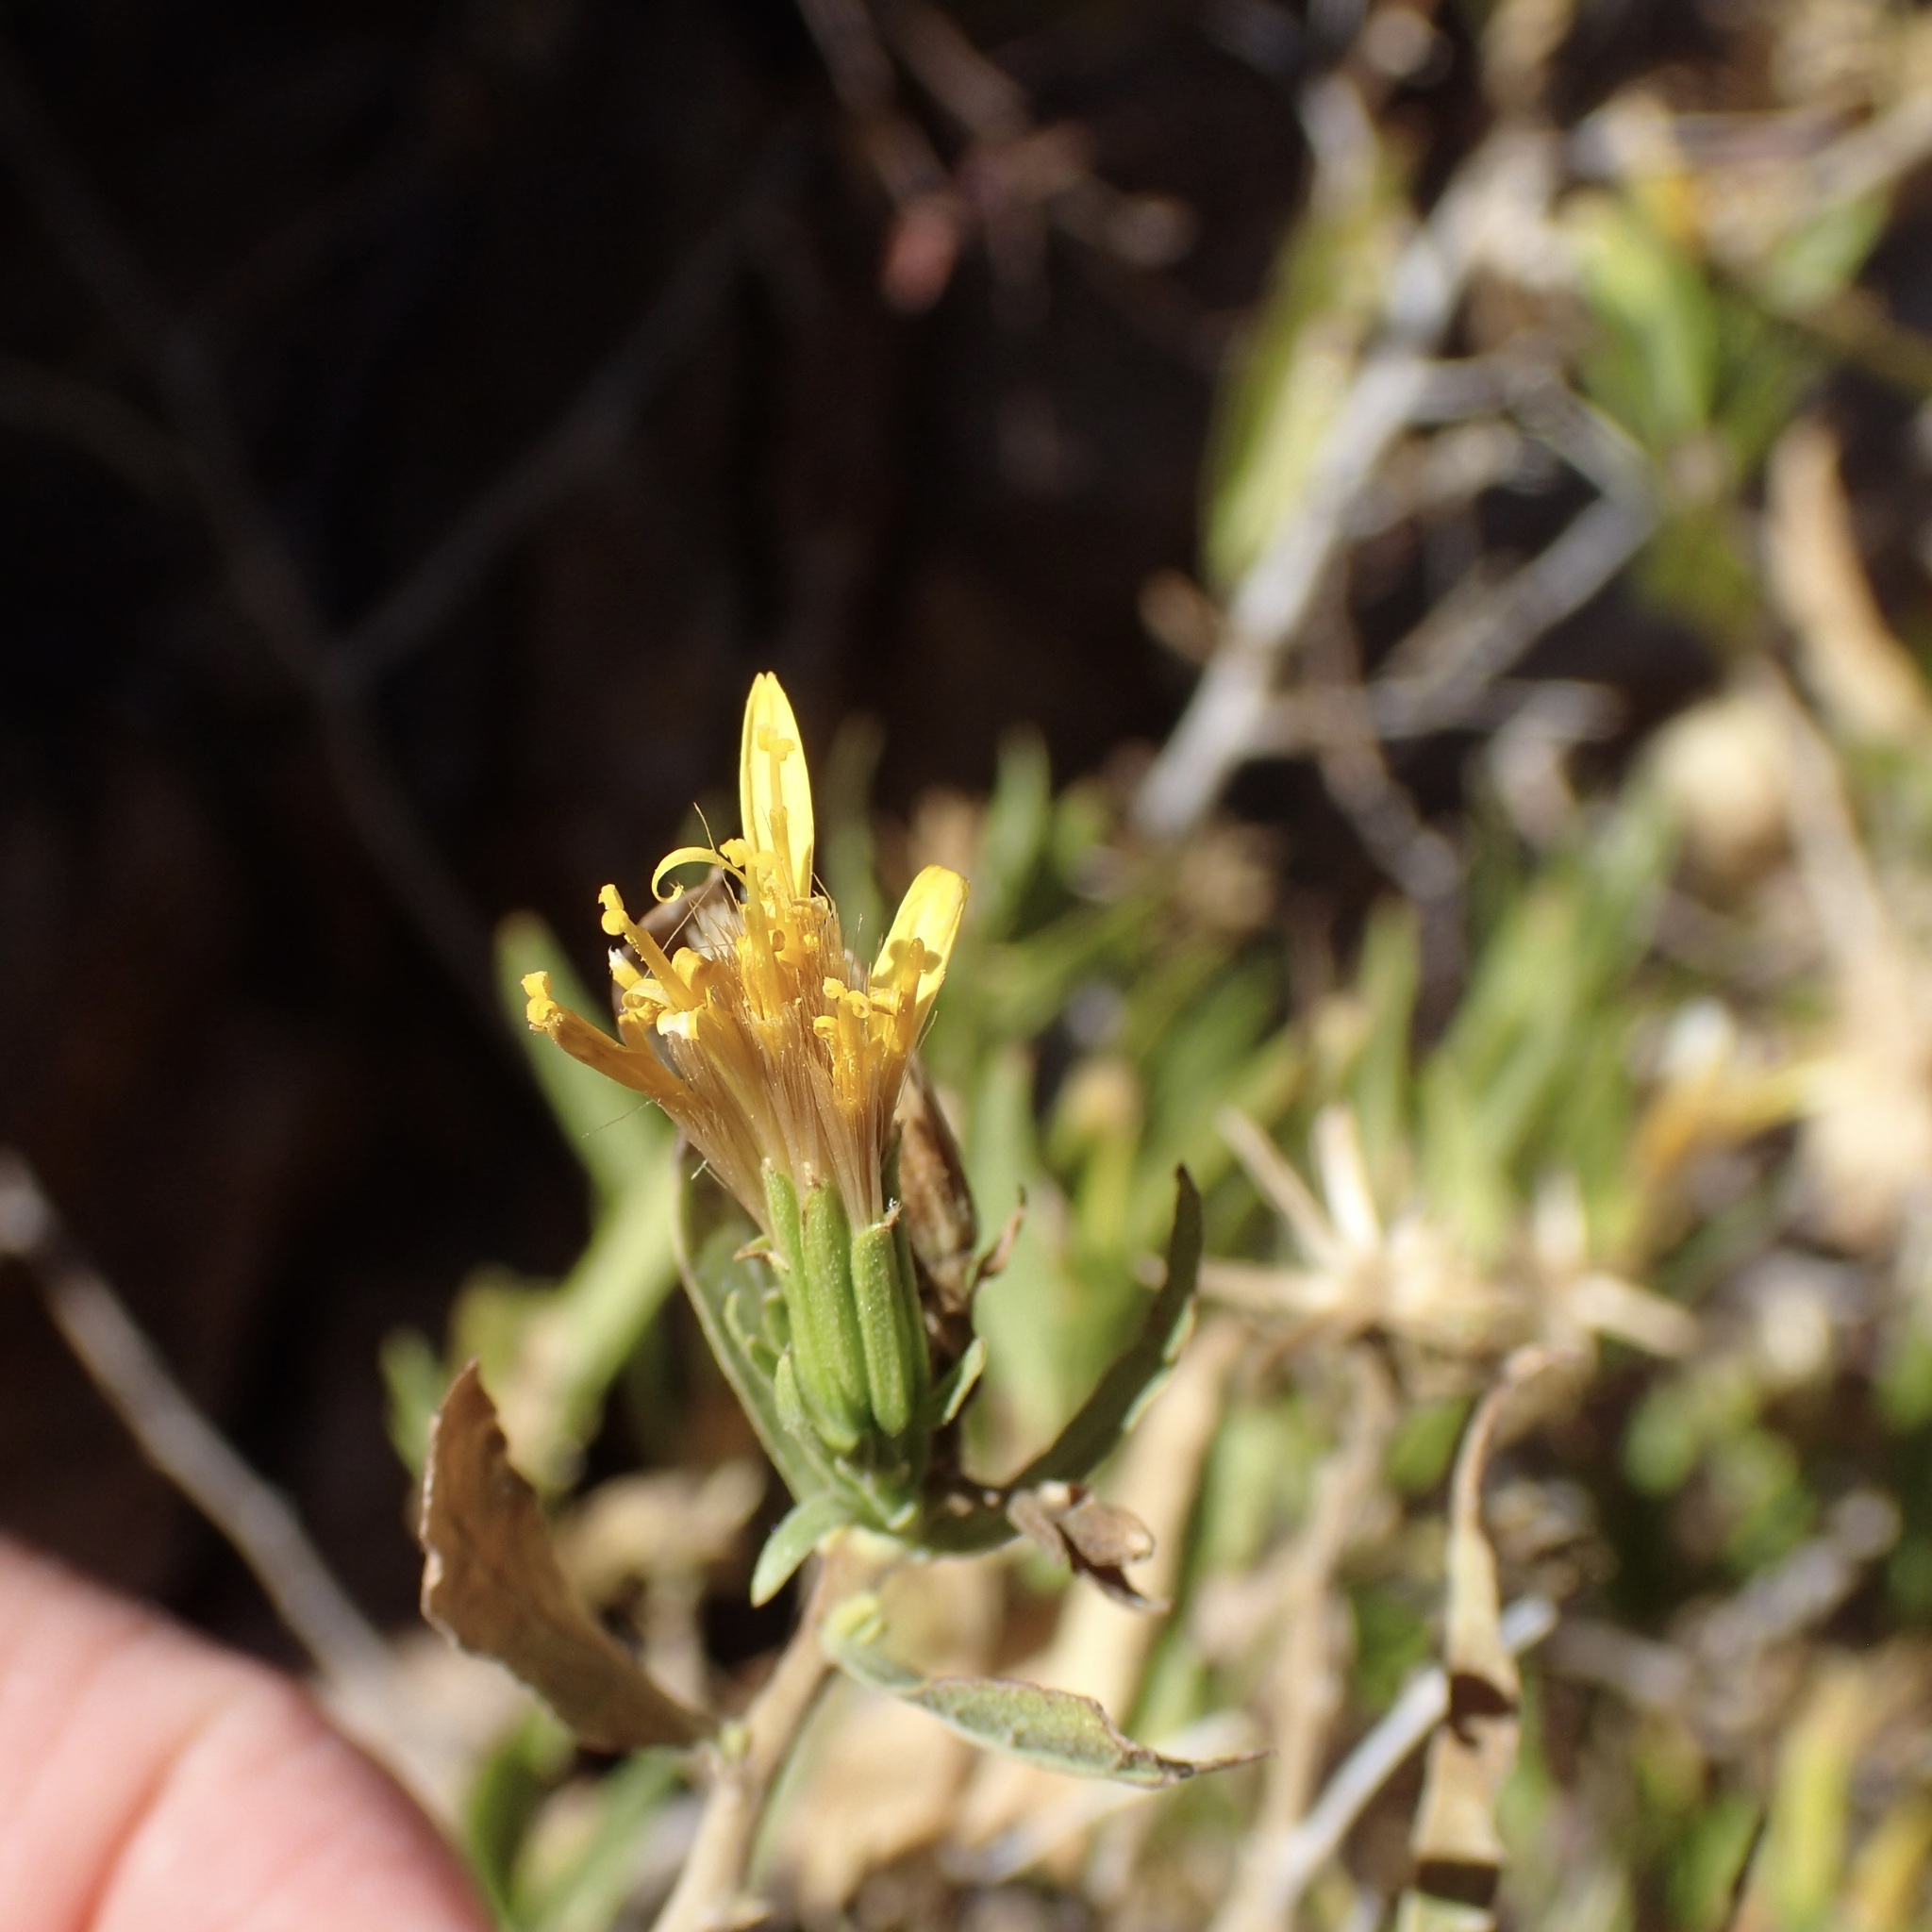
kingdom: Plantae
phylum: Tracheophyta
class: Magnoliopsida
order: Asterales
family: Asteraceae
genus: Trixis
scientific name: Trixis californica
